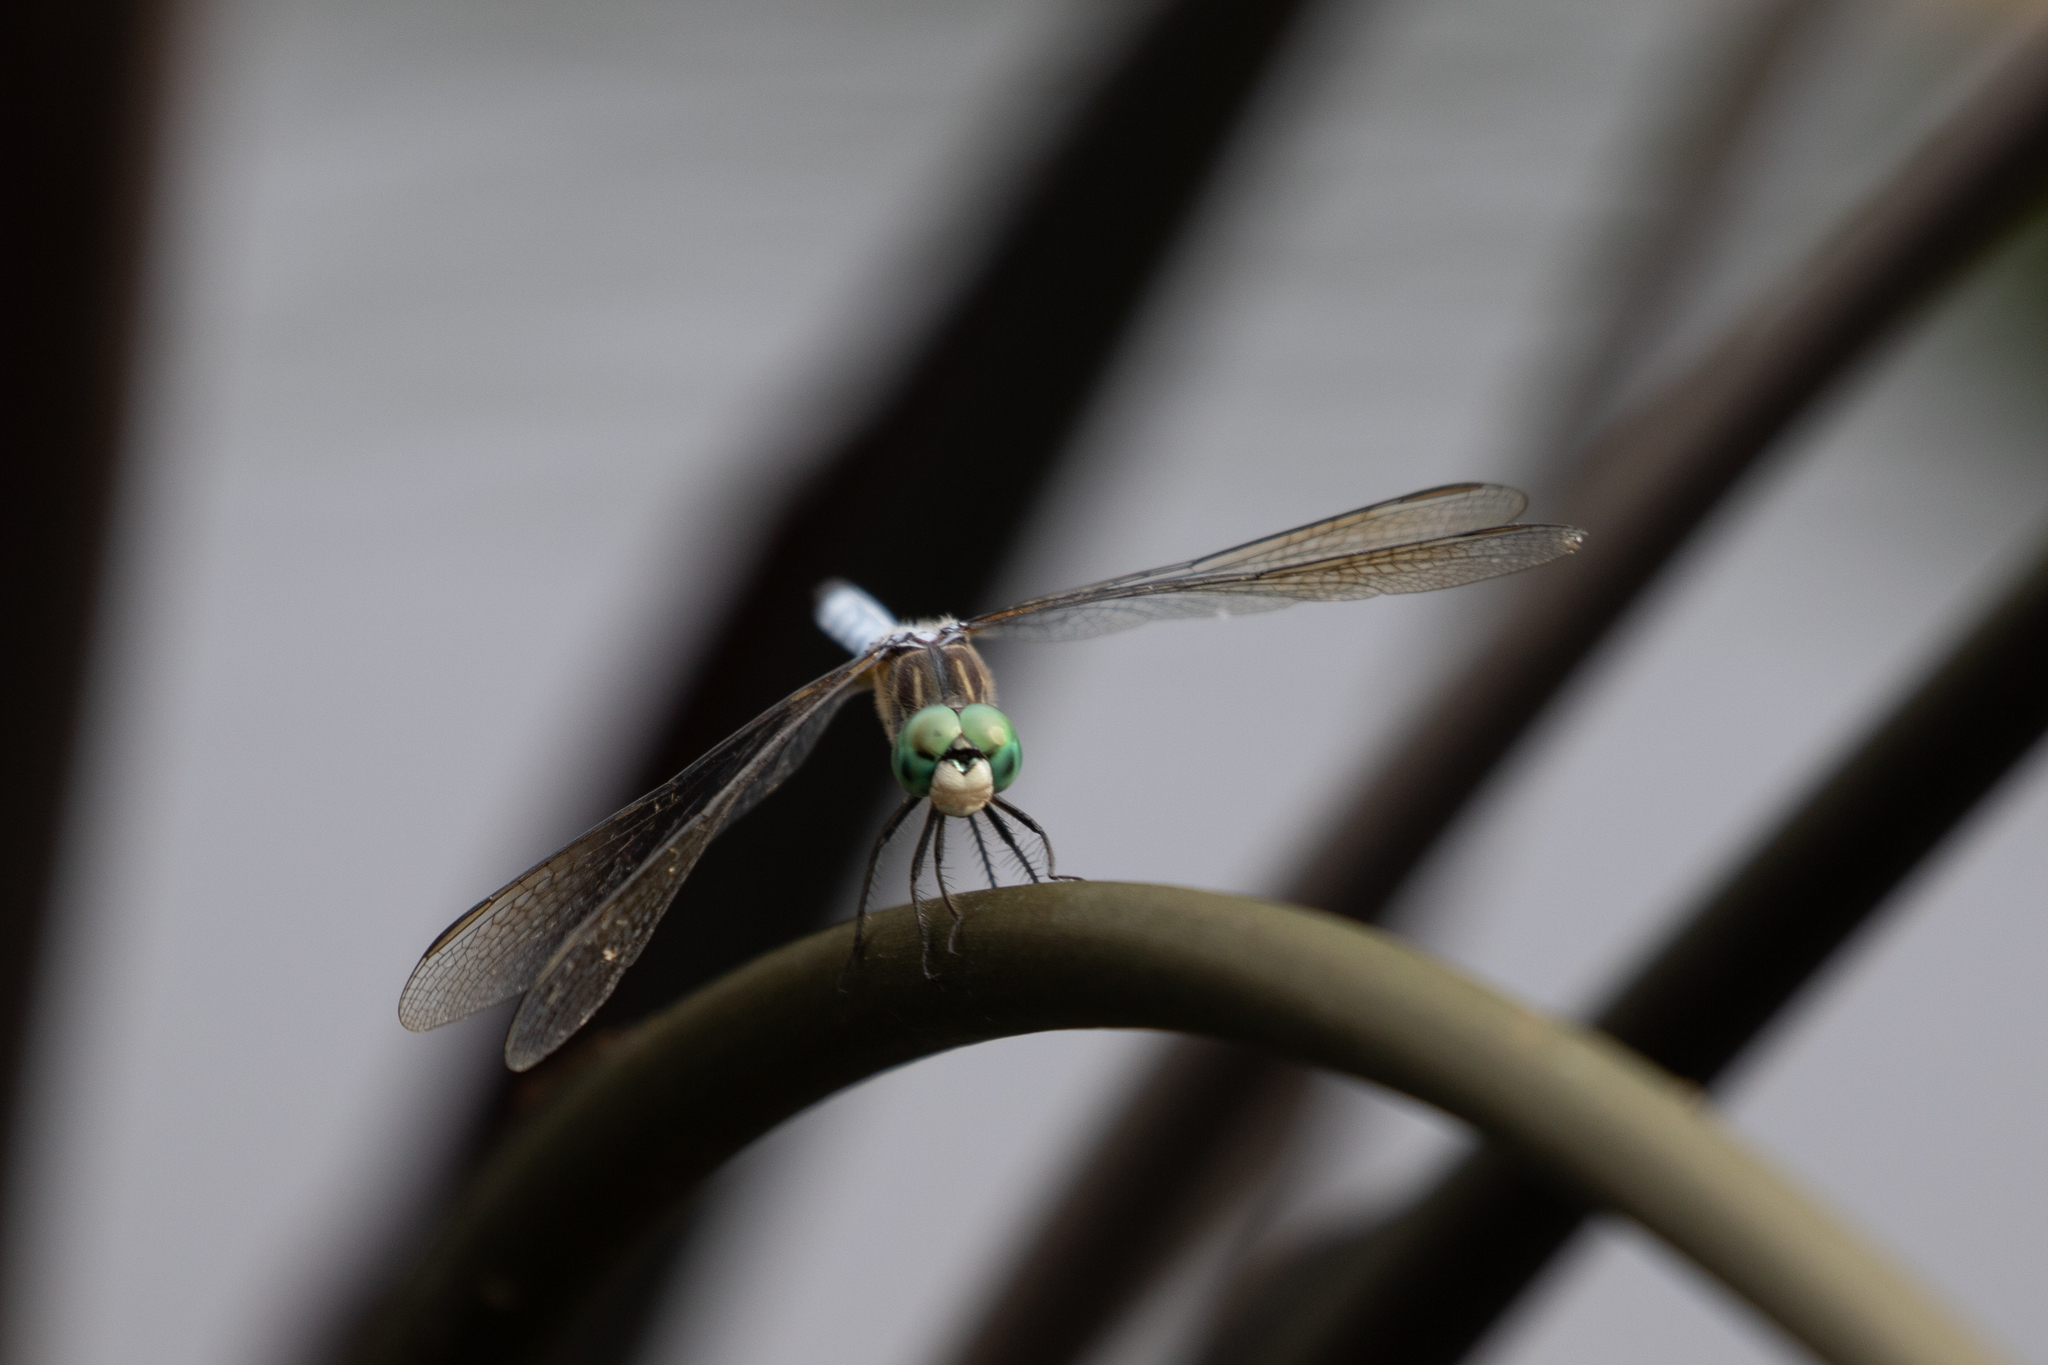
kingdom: Animalia
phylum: Arthropoda
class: Insecta
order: Odonata
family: Libellulidae
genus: Pachydiplax
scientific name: Pachydiplax longipennis
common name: Blue dasher
